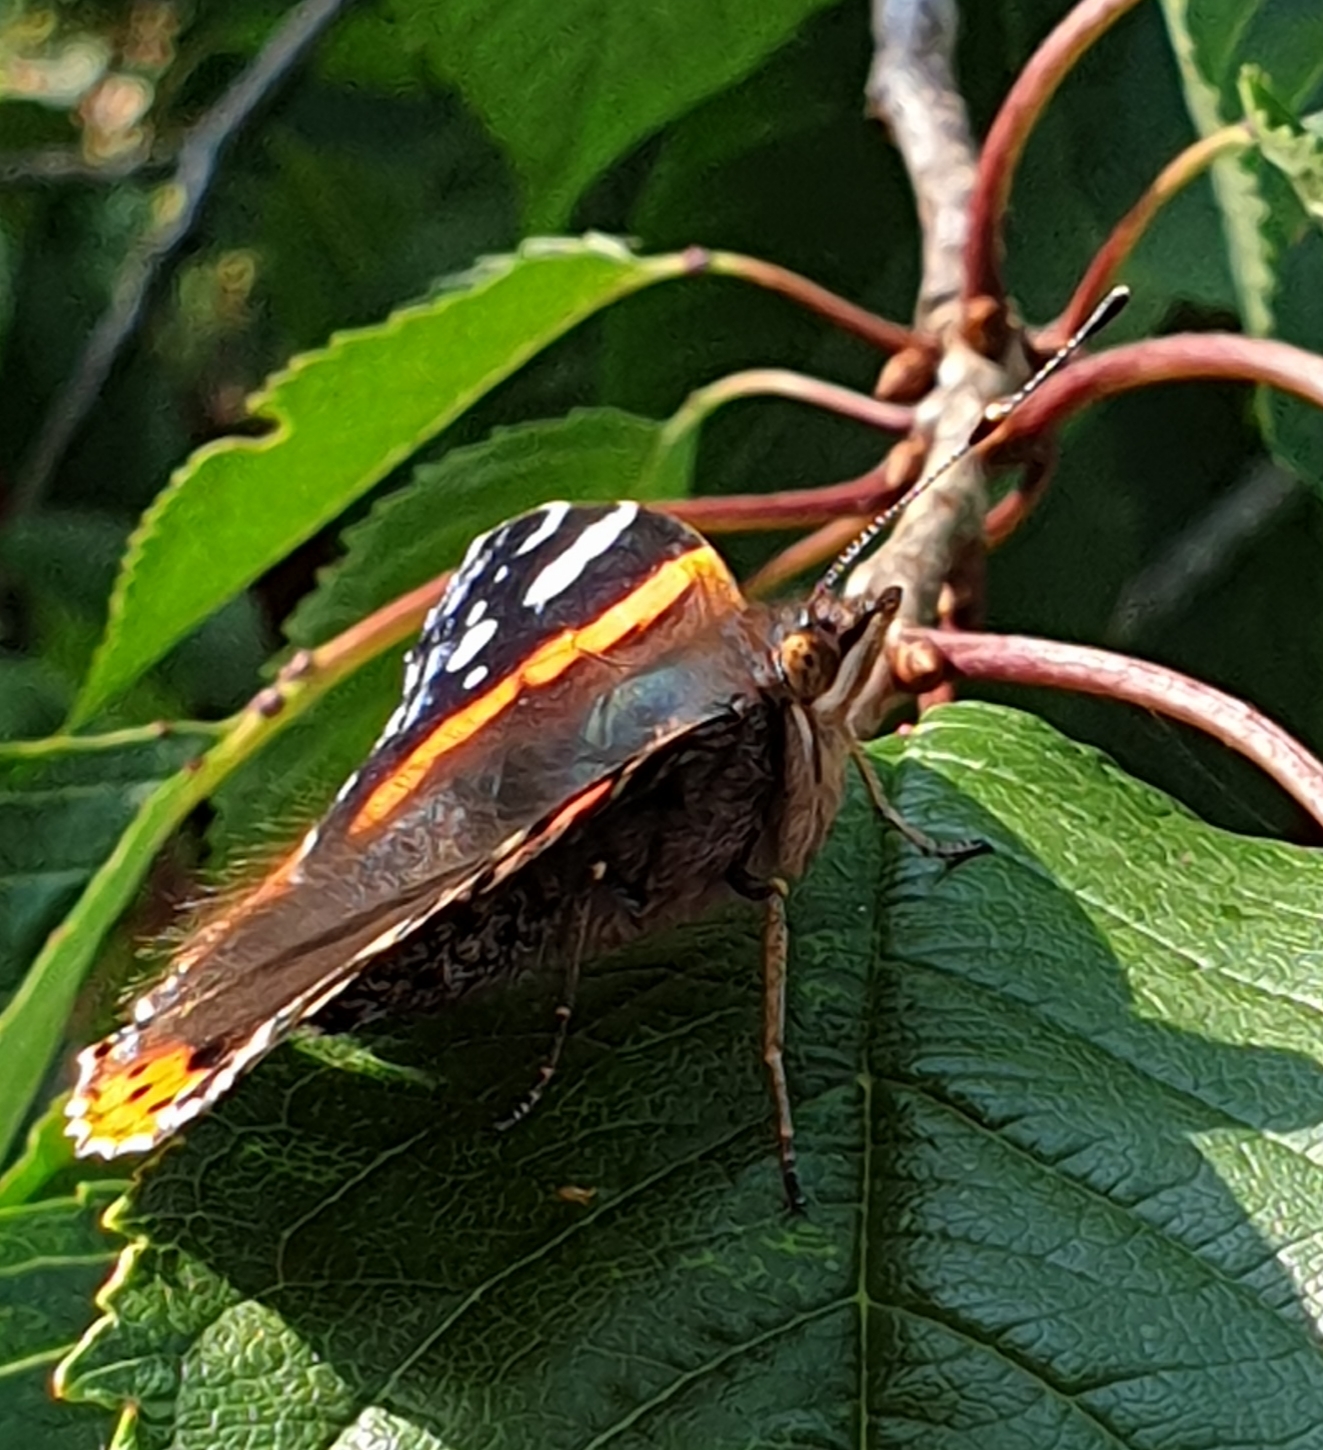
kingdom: Animalia
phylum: Arthropoda
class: Insecta
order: Lepidoptera
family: Nymphalidae
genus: Vanessa
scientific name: Vanessa atalanta
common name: Red admiral
